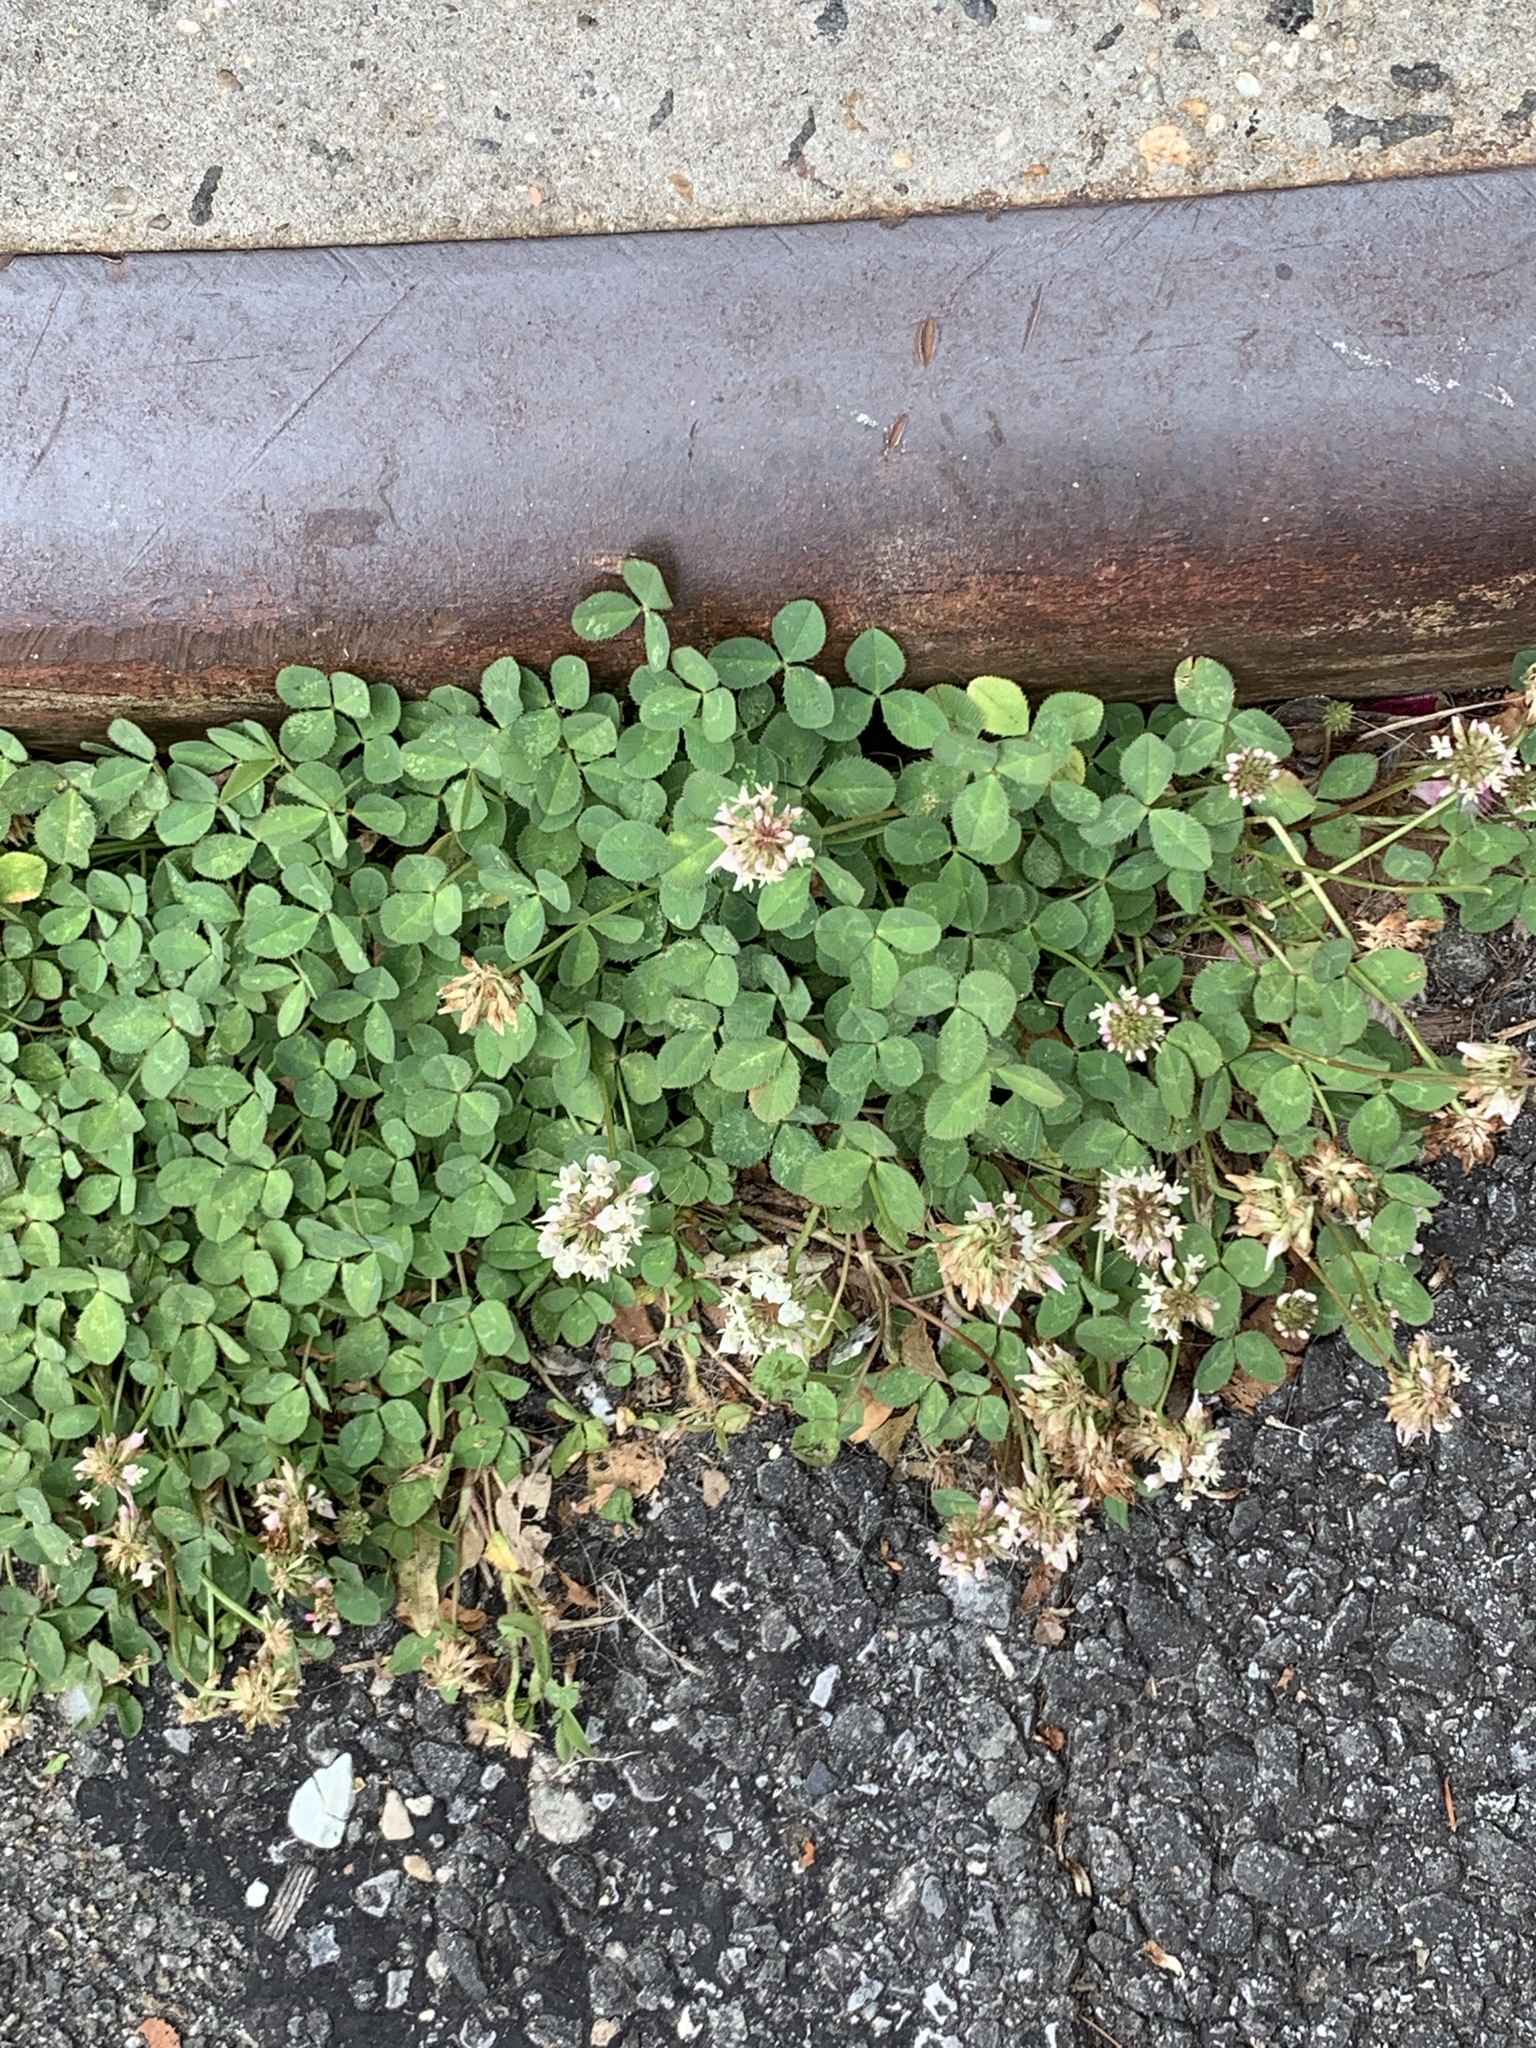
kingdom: Plantae
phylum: Tracheophyta
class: Magnoliopsida
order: Fabales
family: Fabaceae
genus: Trifolium
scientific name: Trifolium repens
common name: White clover
